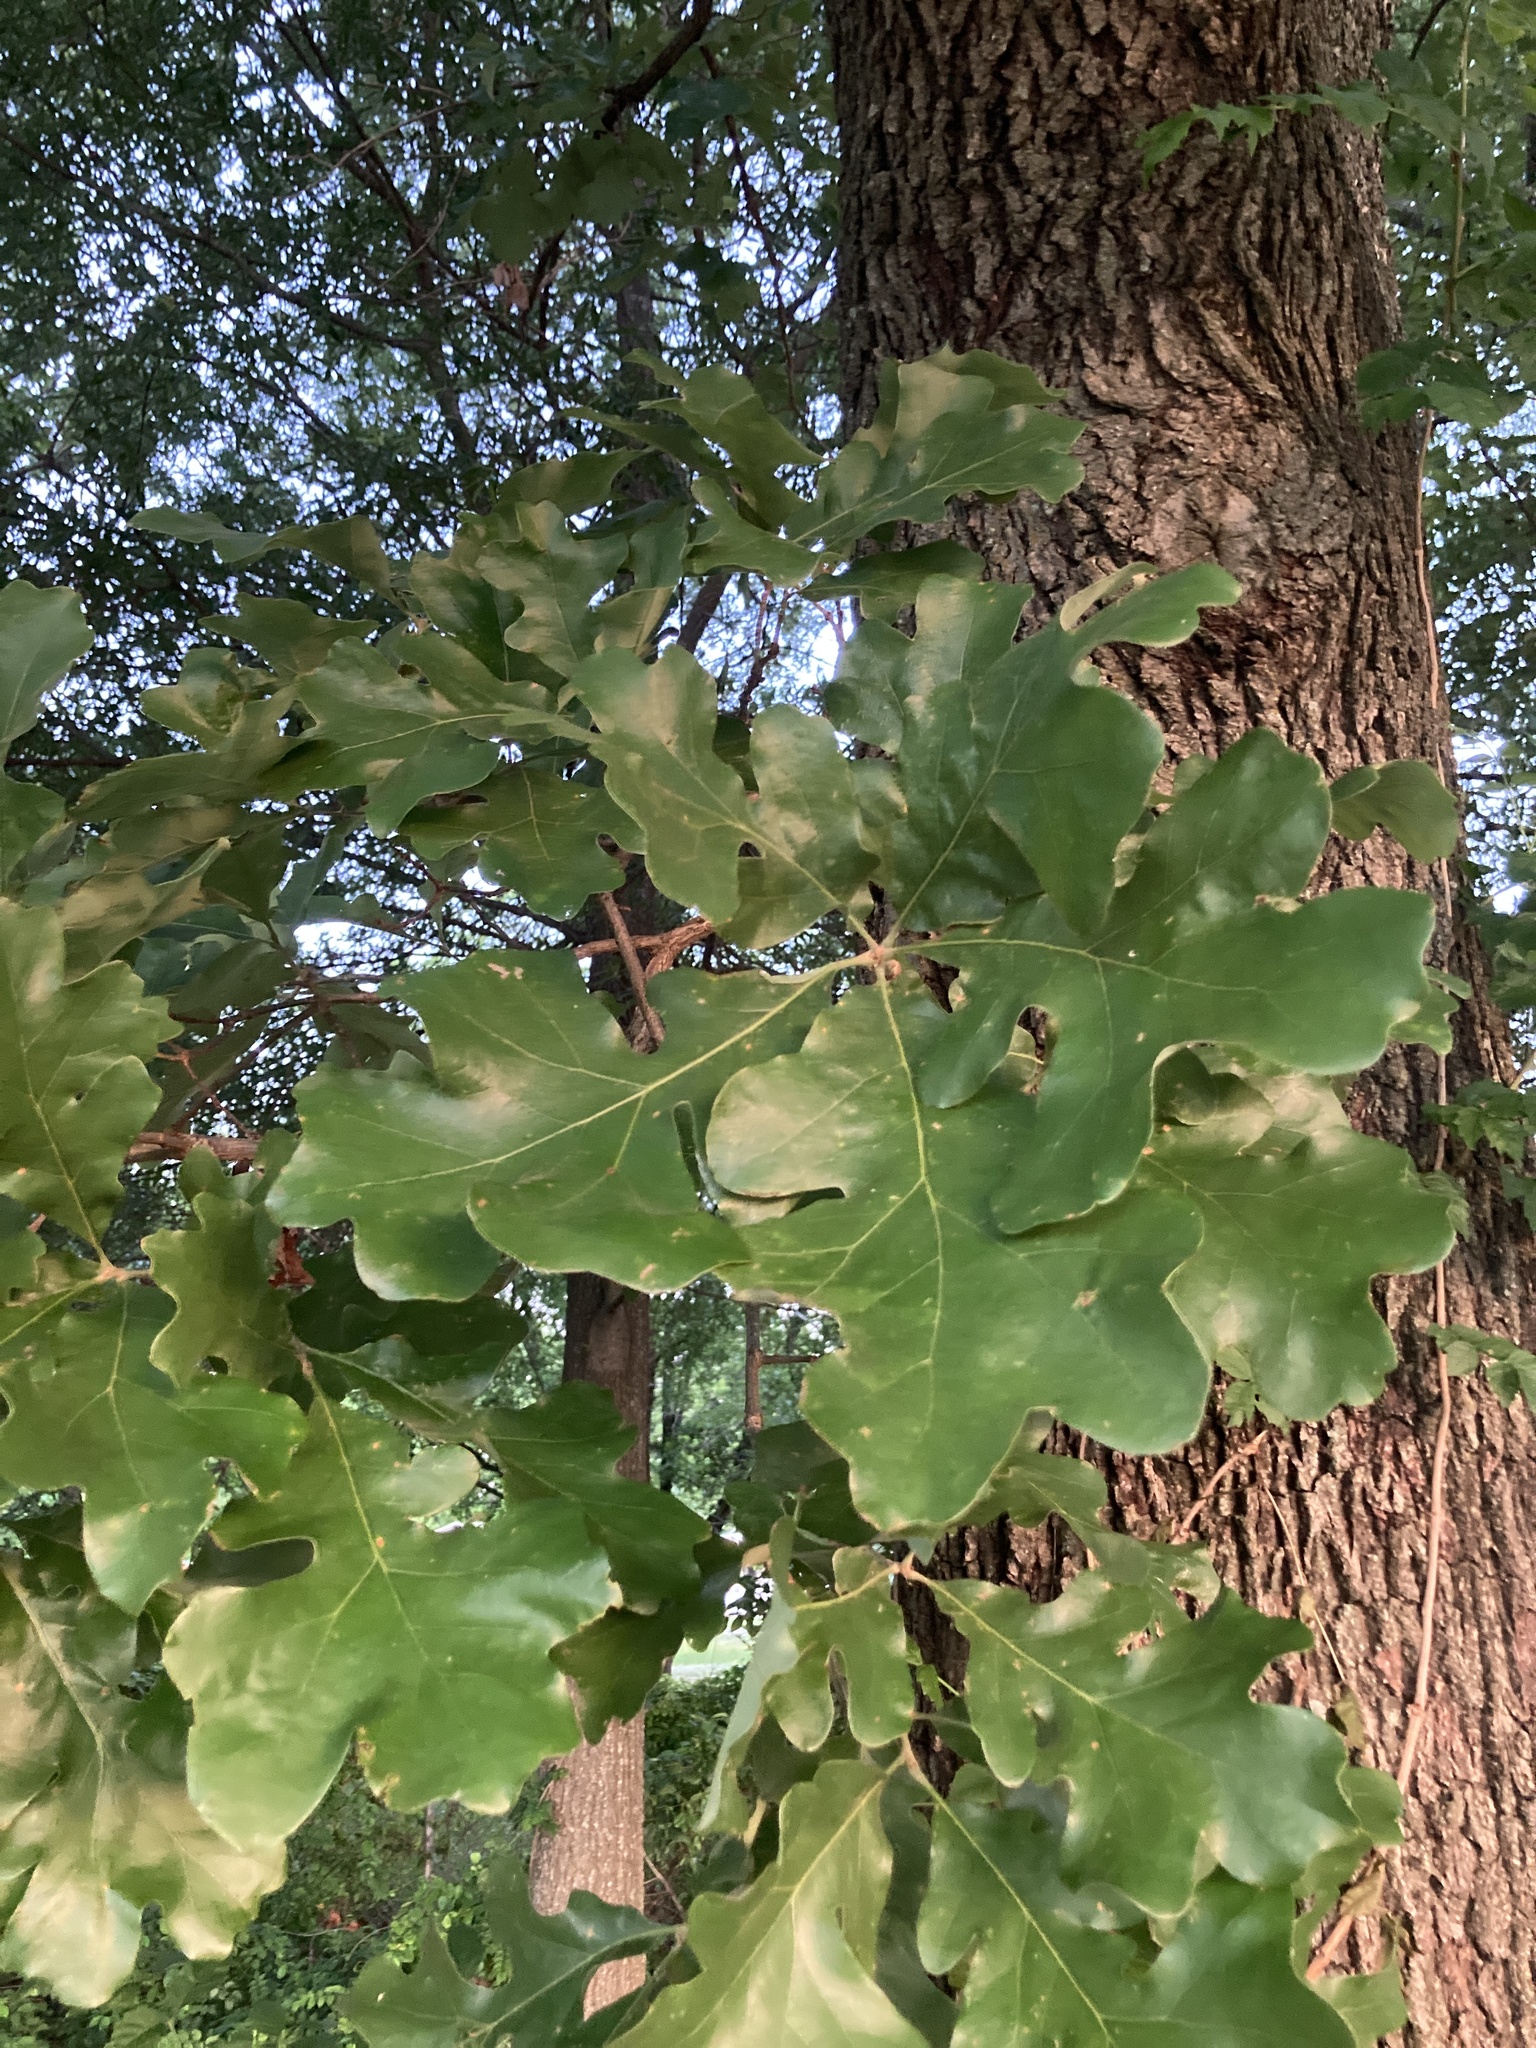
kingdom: Plantae
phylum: Tracheophyta
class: Magnoliopsida
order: Fagales
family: Fagaceae
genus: Quercus
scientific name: Quercus stellata
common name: Post oak
